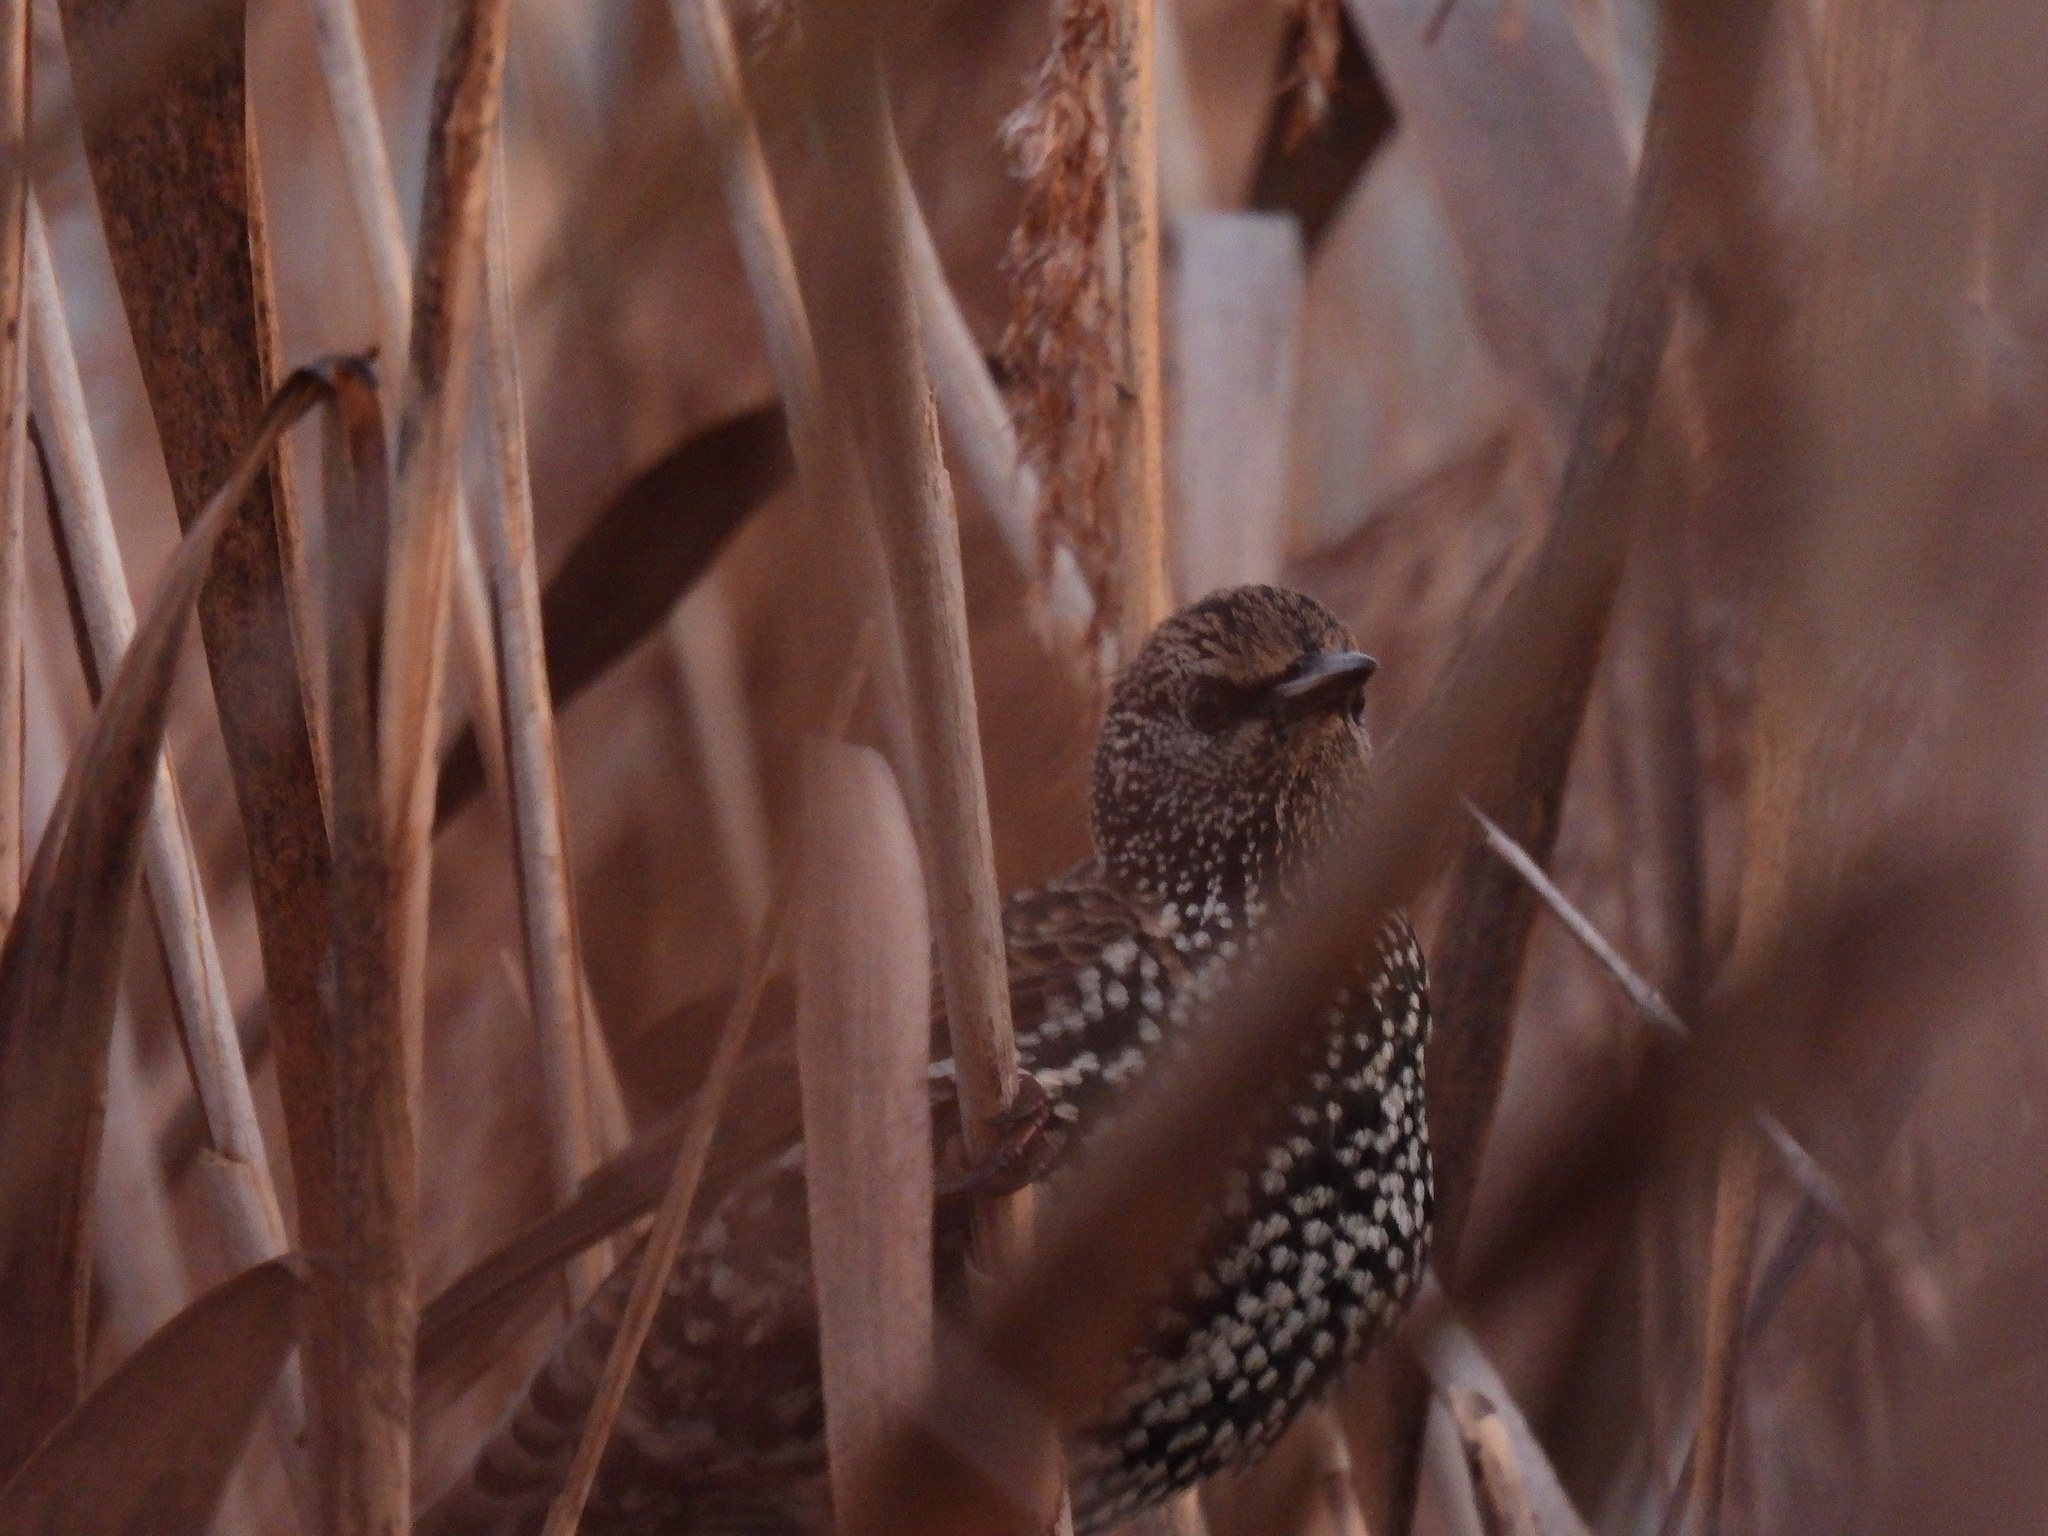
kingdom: Animalia
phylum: Chordata
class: Aves
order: Passeriformes
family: Sturnidae
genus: Sturnus
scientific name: Sturnus vulgaris
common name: Common starling
